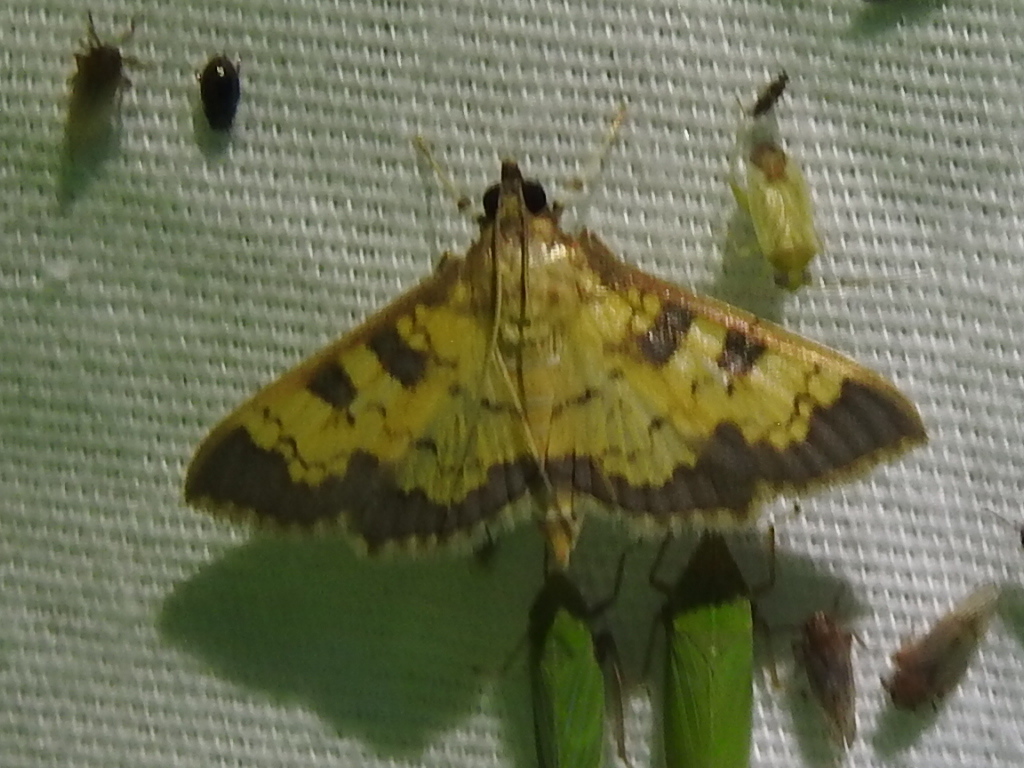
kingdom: Animalia
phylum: Arthropoda
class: Insecta
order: Lepidoptera
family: Crambidae
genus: Epipagis
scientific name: Epipagis adipaloides
